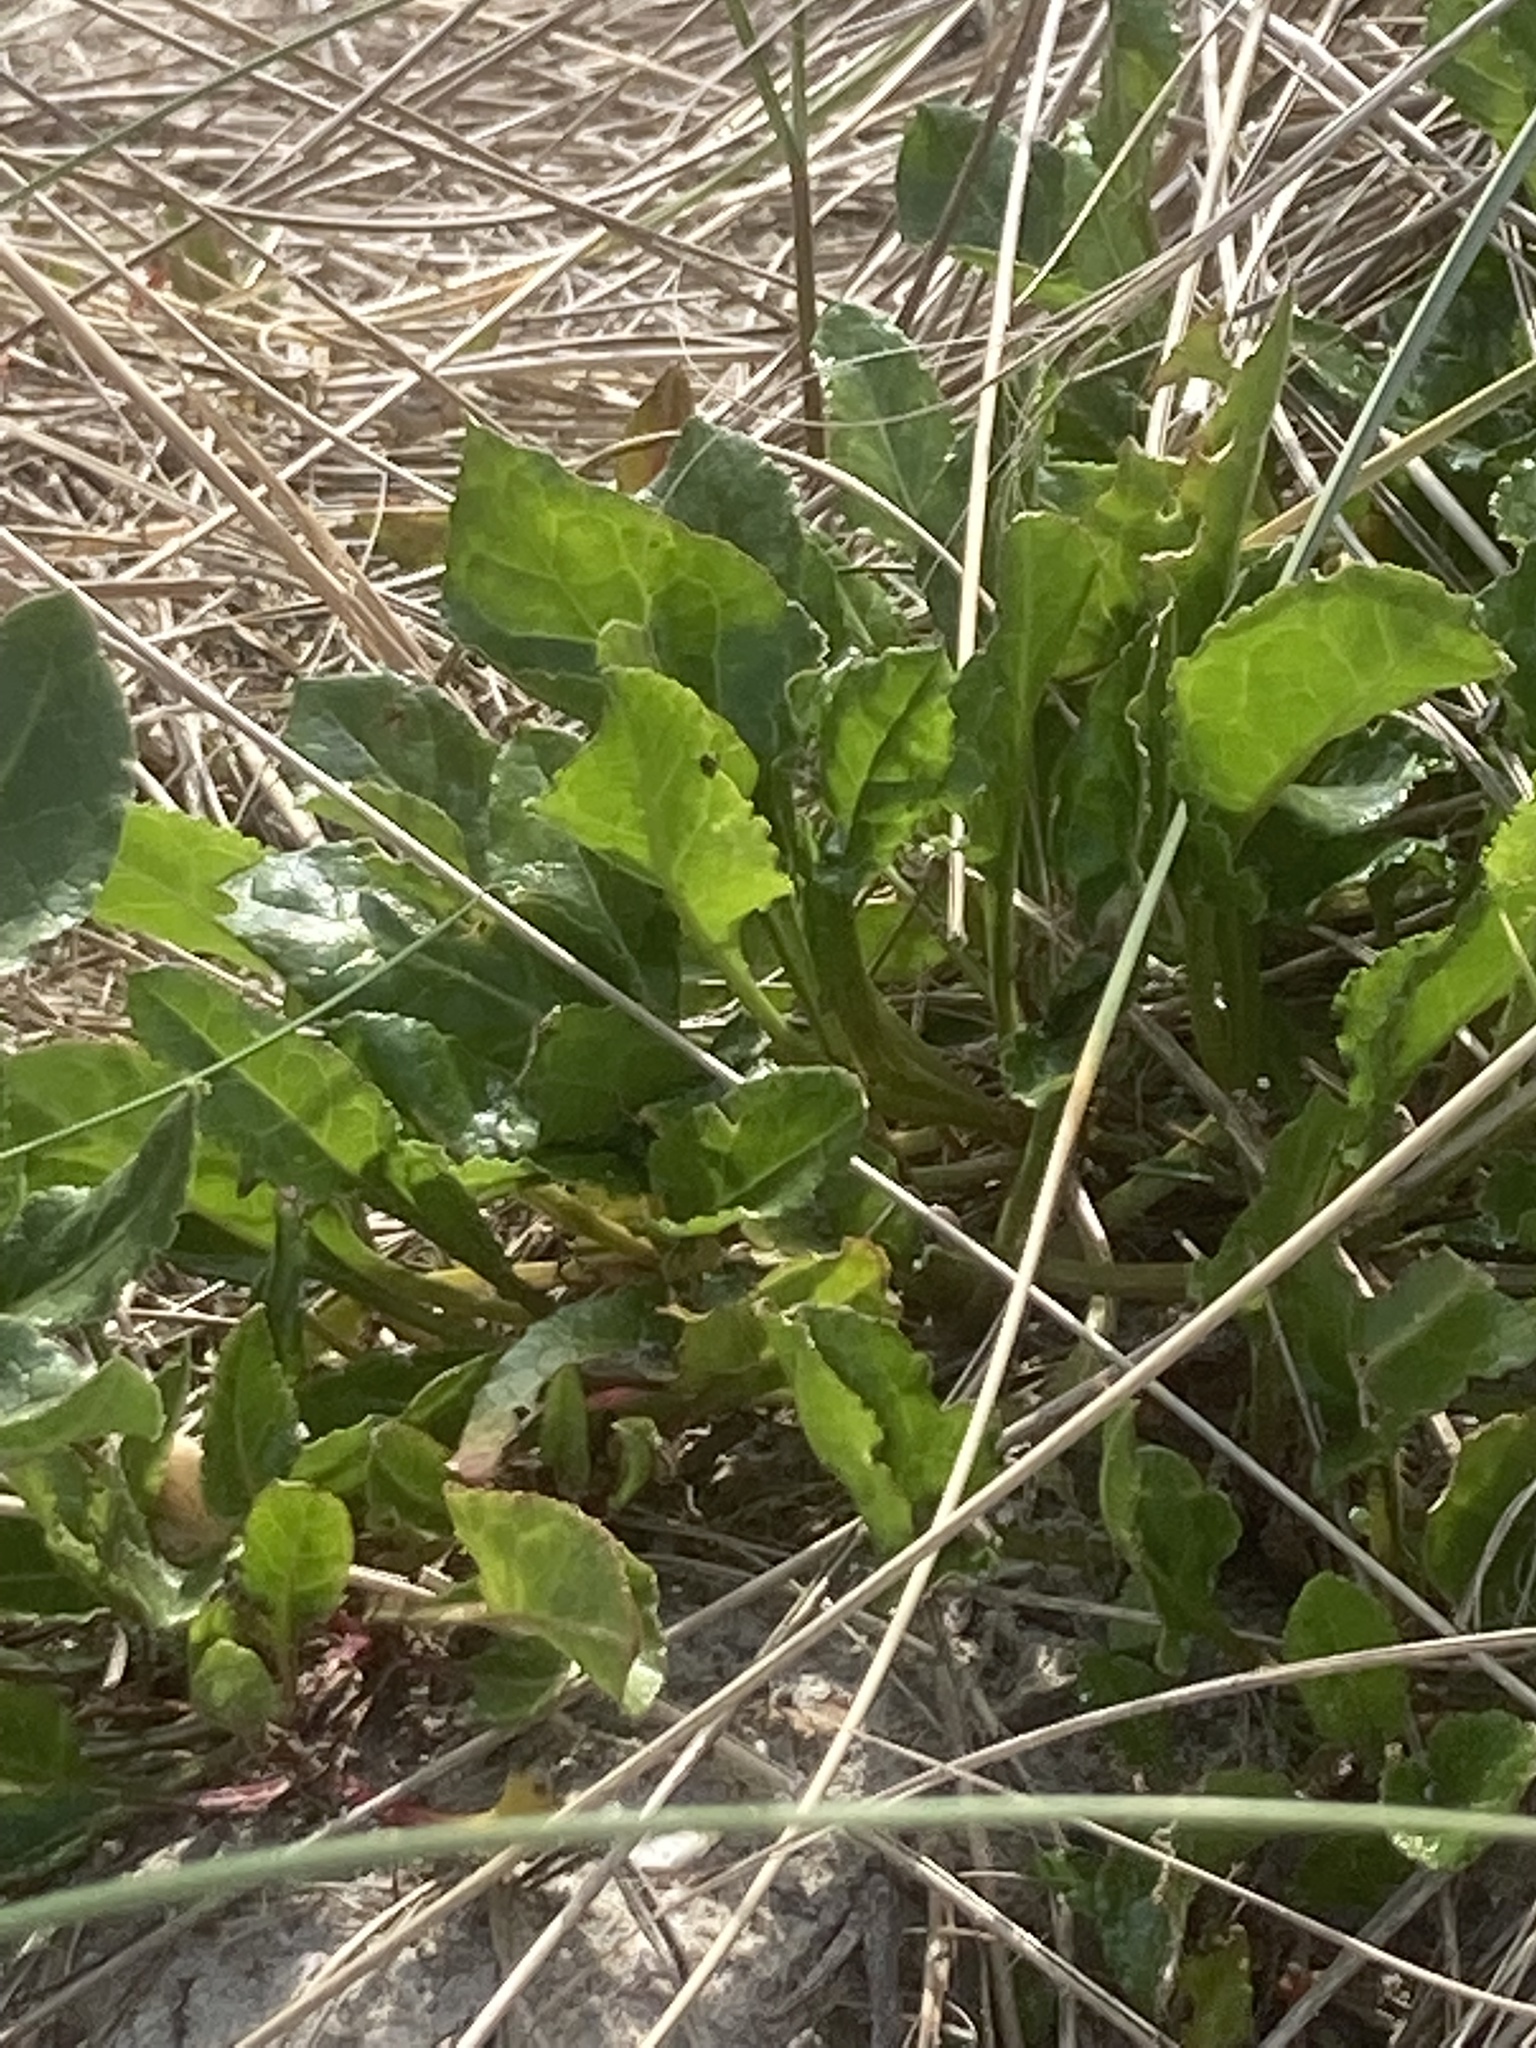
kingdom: Plantae
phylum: Tracheophyta
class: Magnoliopsida
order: Caryophyllales
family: Amaranthaceae
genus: Beta
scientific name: Beta vulgaris
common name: Beet
